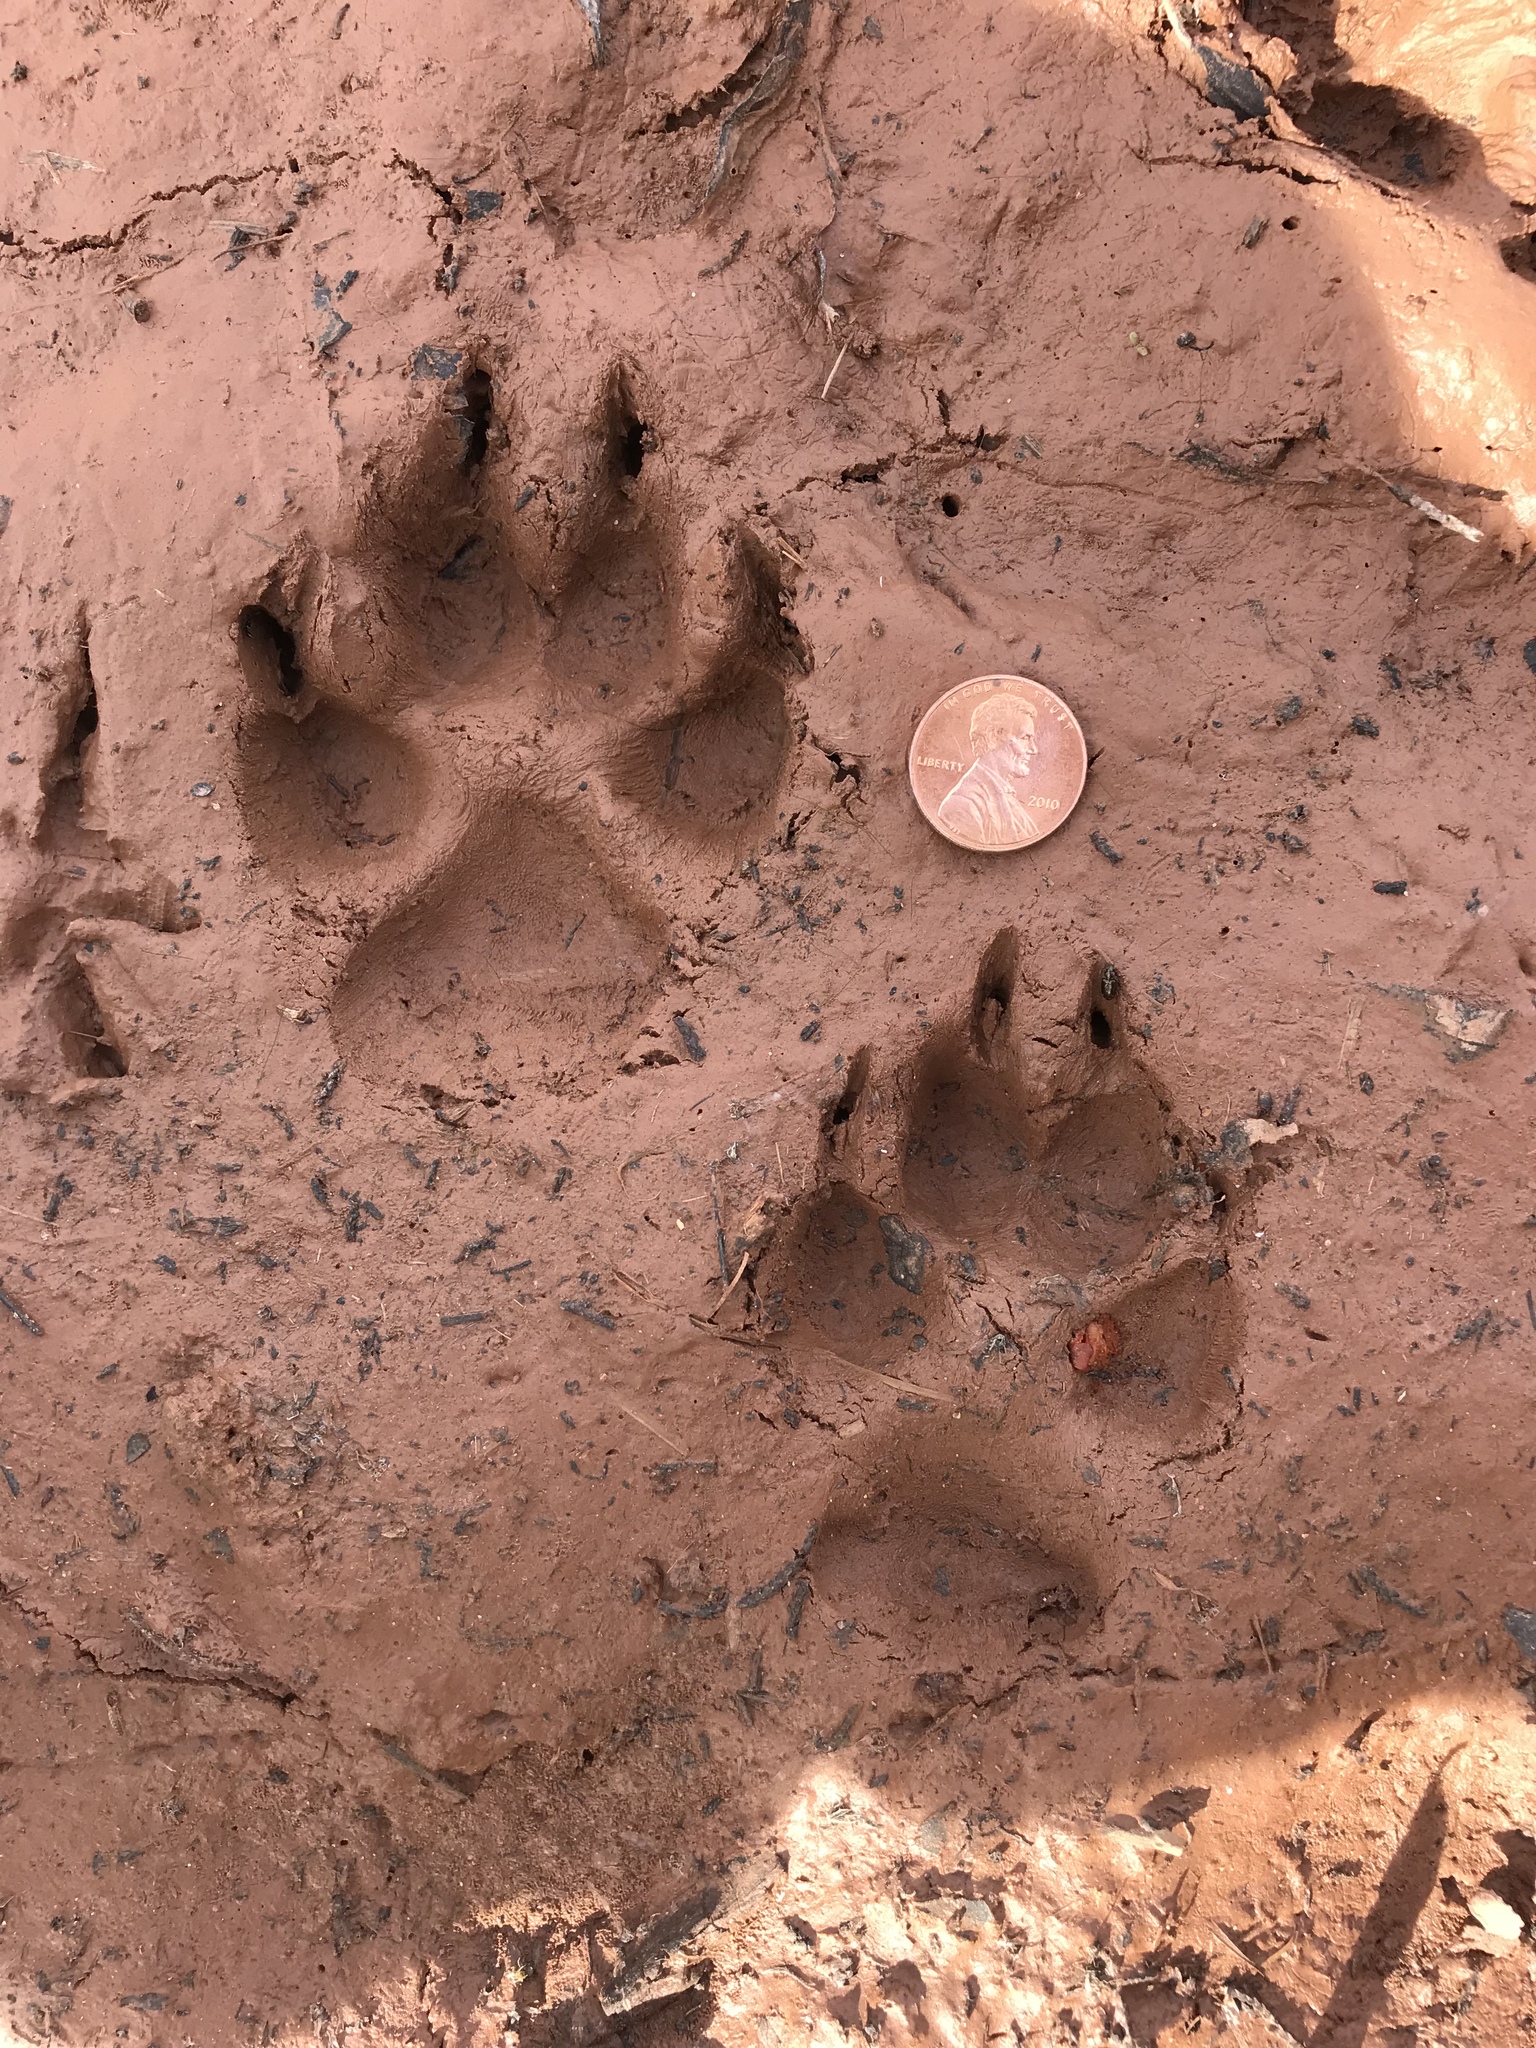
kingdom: Animalia
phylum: Chordata
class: Mammalia
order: Carnivora
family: Canidae
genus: Canis
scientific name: Canis latrans
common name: Coyote
